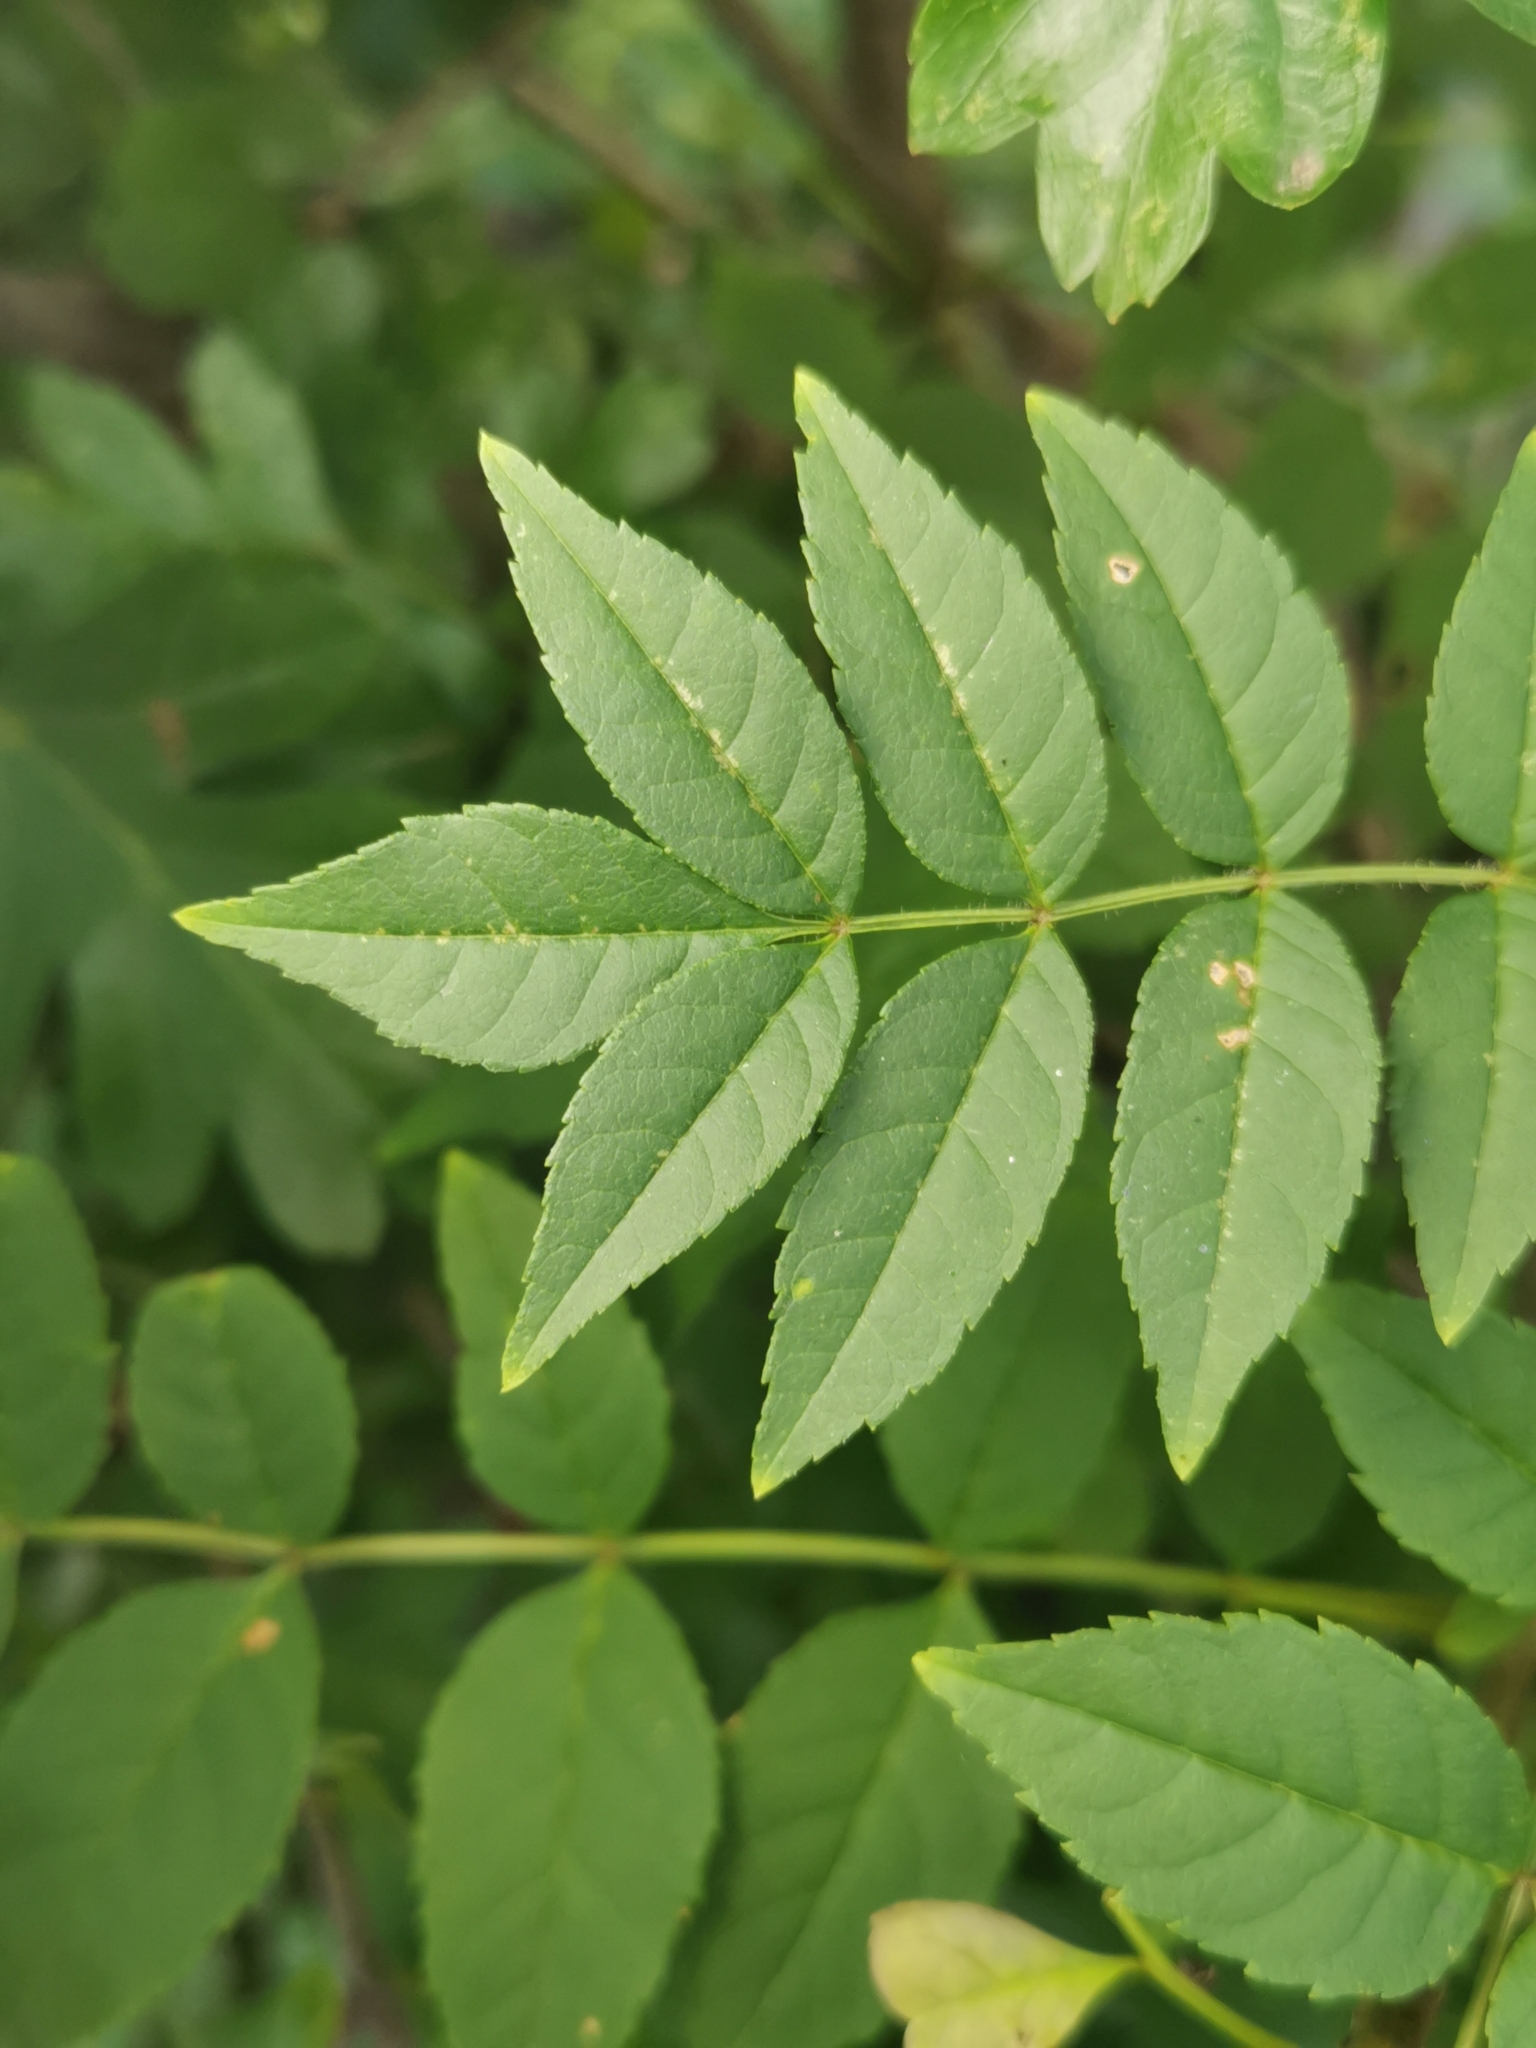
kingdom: Plantae
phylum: Tracheophyta
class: Magnoliopsida
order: Lamiales
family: Oleaceae
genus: Fraxinus
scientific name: Fraxinus excelsior
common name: European ash
